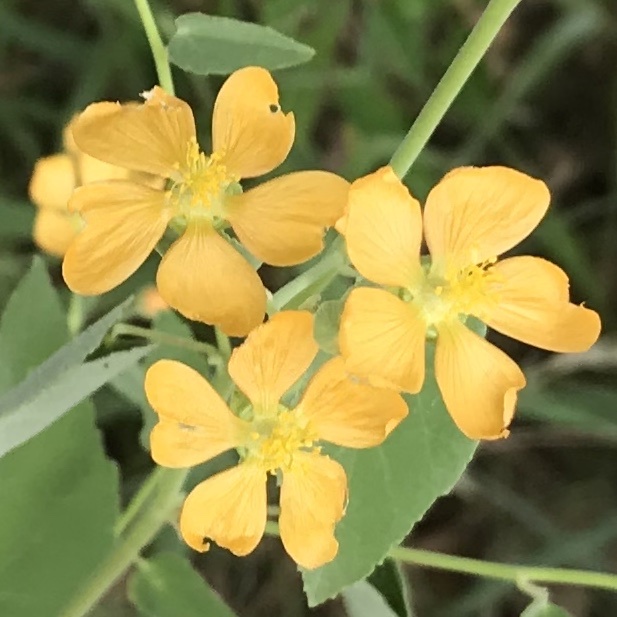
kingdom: Plantae
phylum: Tracheophyta
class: Magnoliopsida
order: Malvales
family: Malvaceae
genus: Abutilon
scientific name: Abutilon fruticosum
